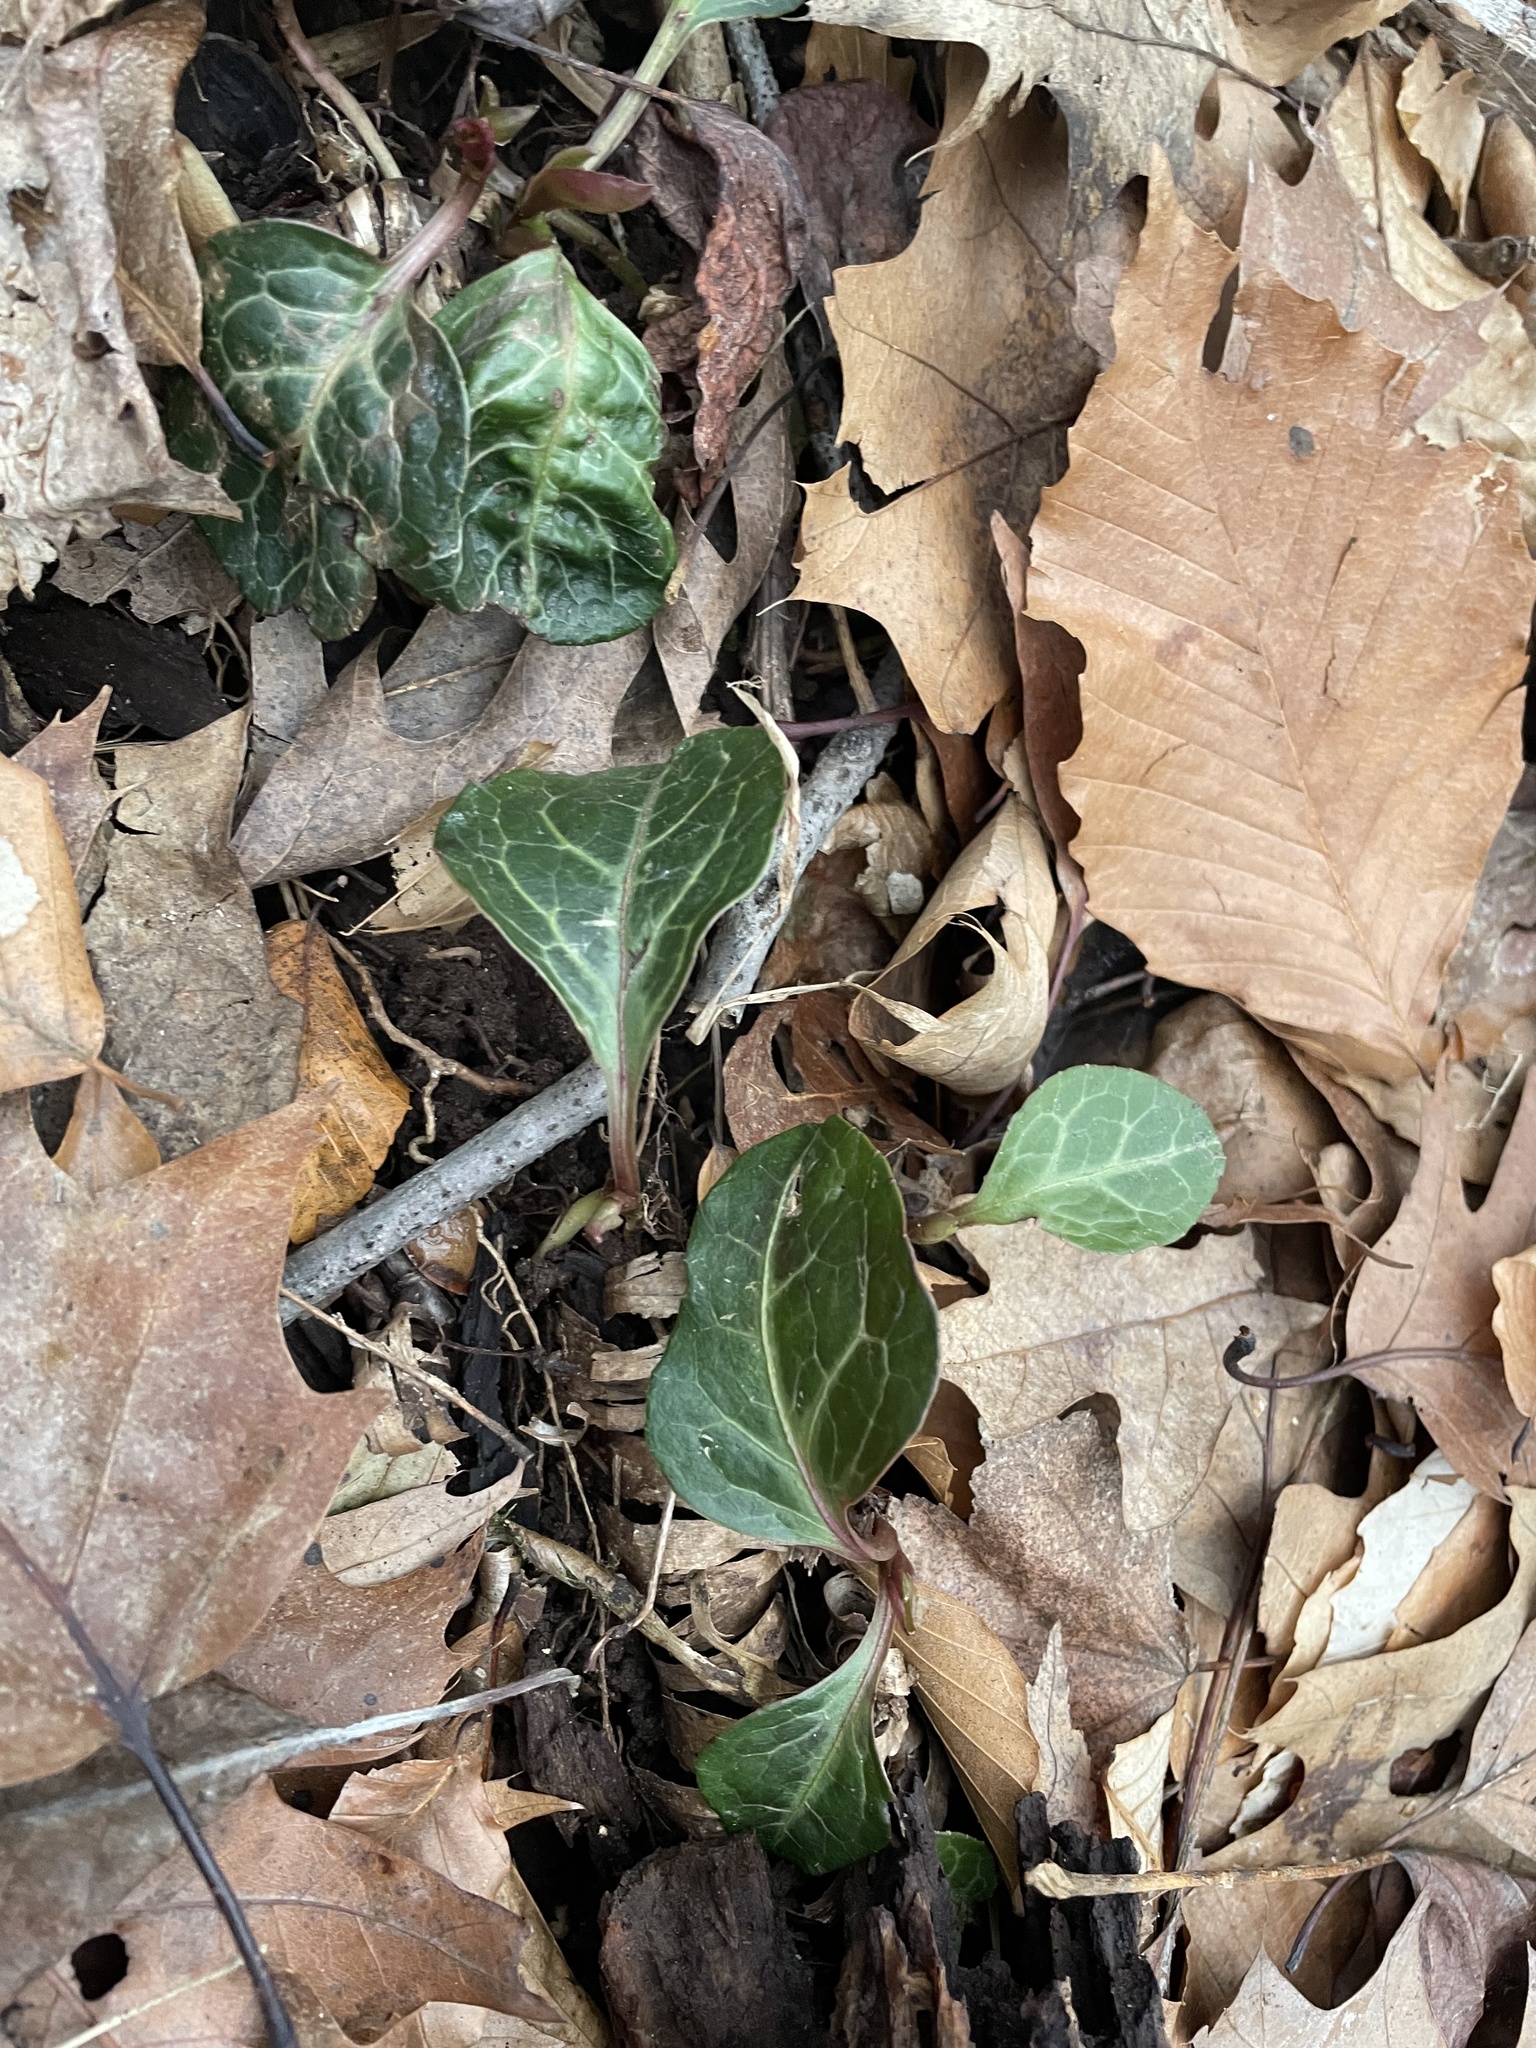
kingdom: Plantae
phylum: Tracheophyta
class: Magnoliopsida
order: Ericales
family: Ericaceae
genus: Pyrola
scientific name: Pyrola americana
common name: American wintergreen
